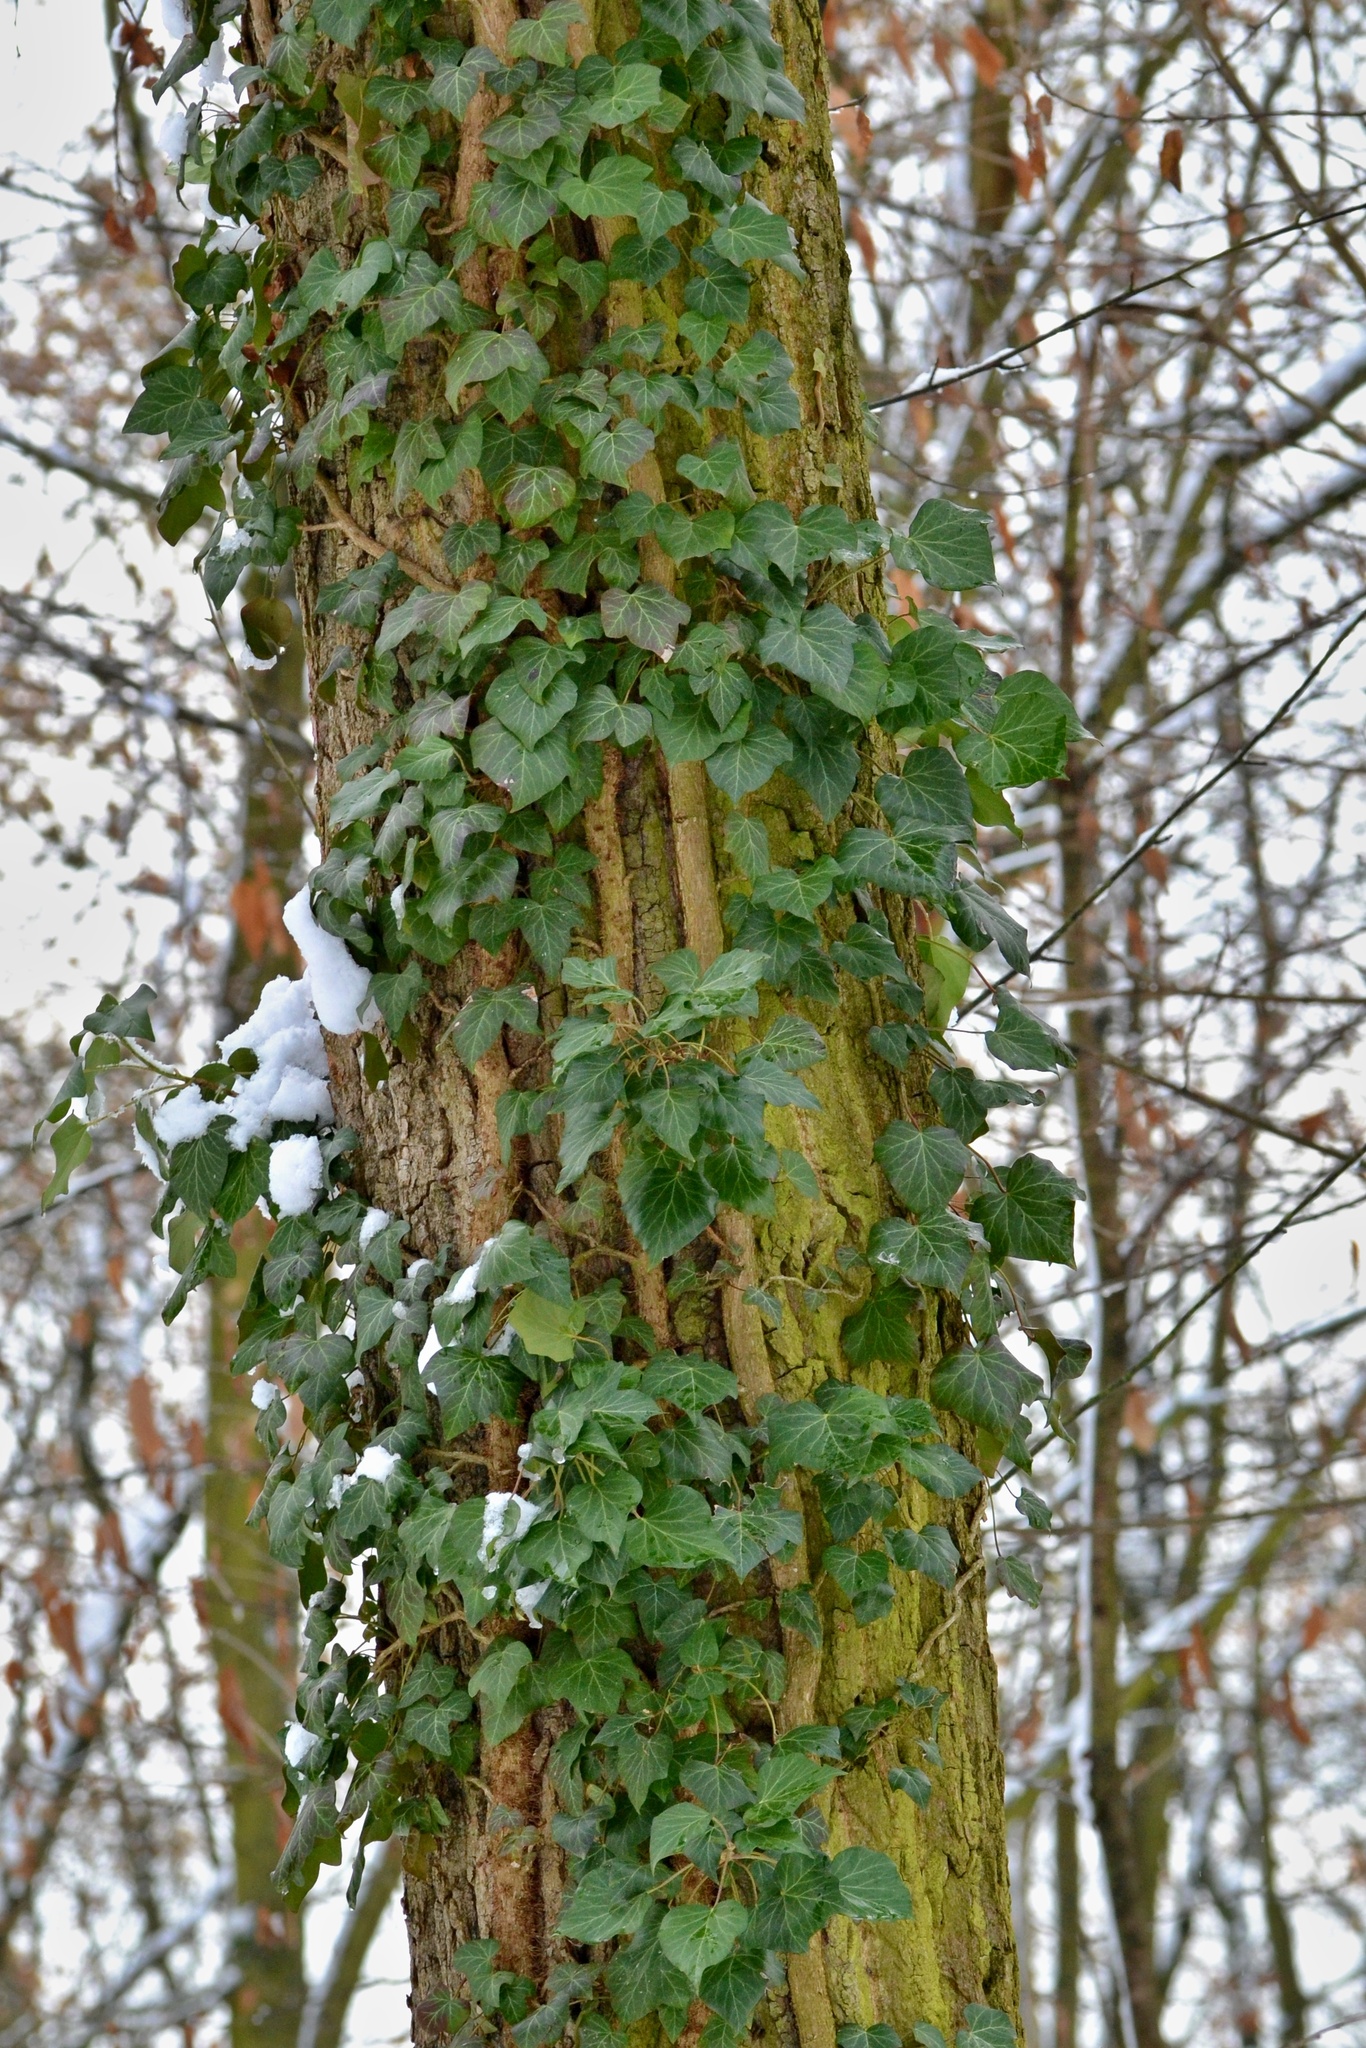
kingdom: Plantae
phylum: Tracheophyta
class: Magnoliopsida
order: Apiales
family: Araliaceae
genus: Hedera
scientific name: Hedera helix
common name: Ivy
